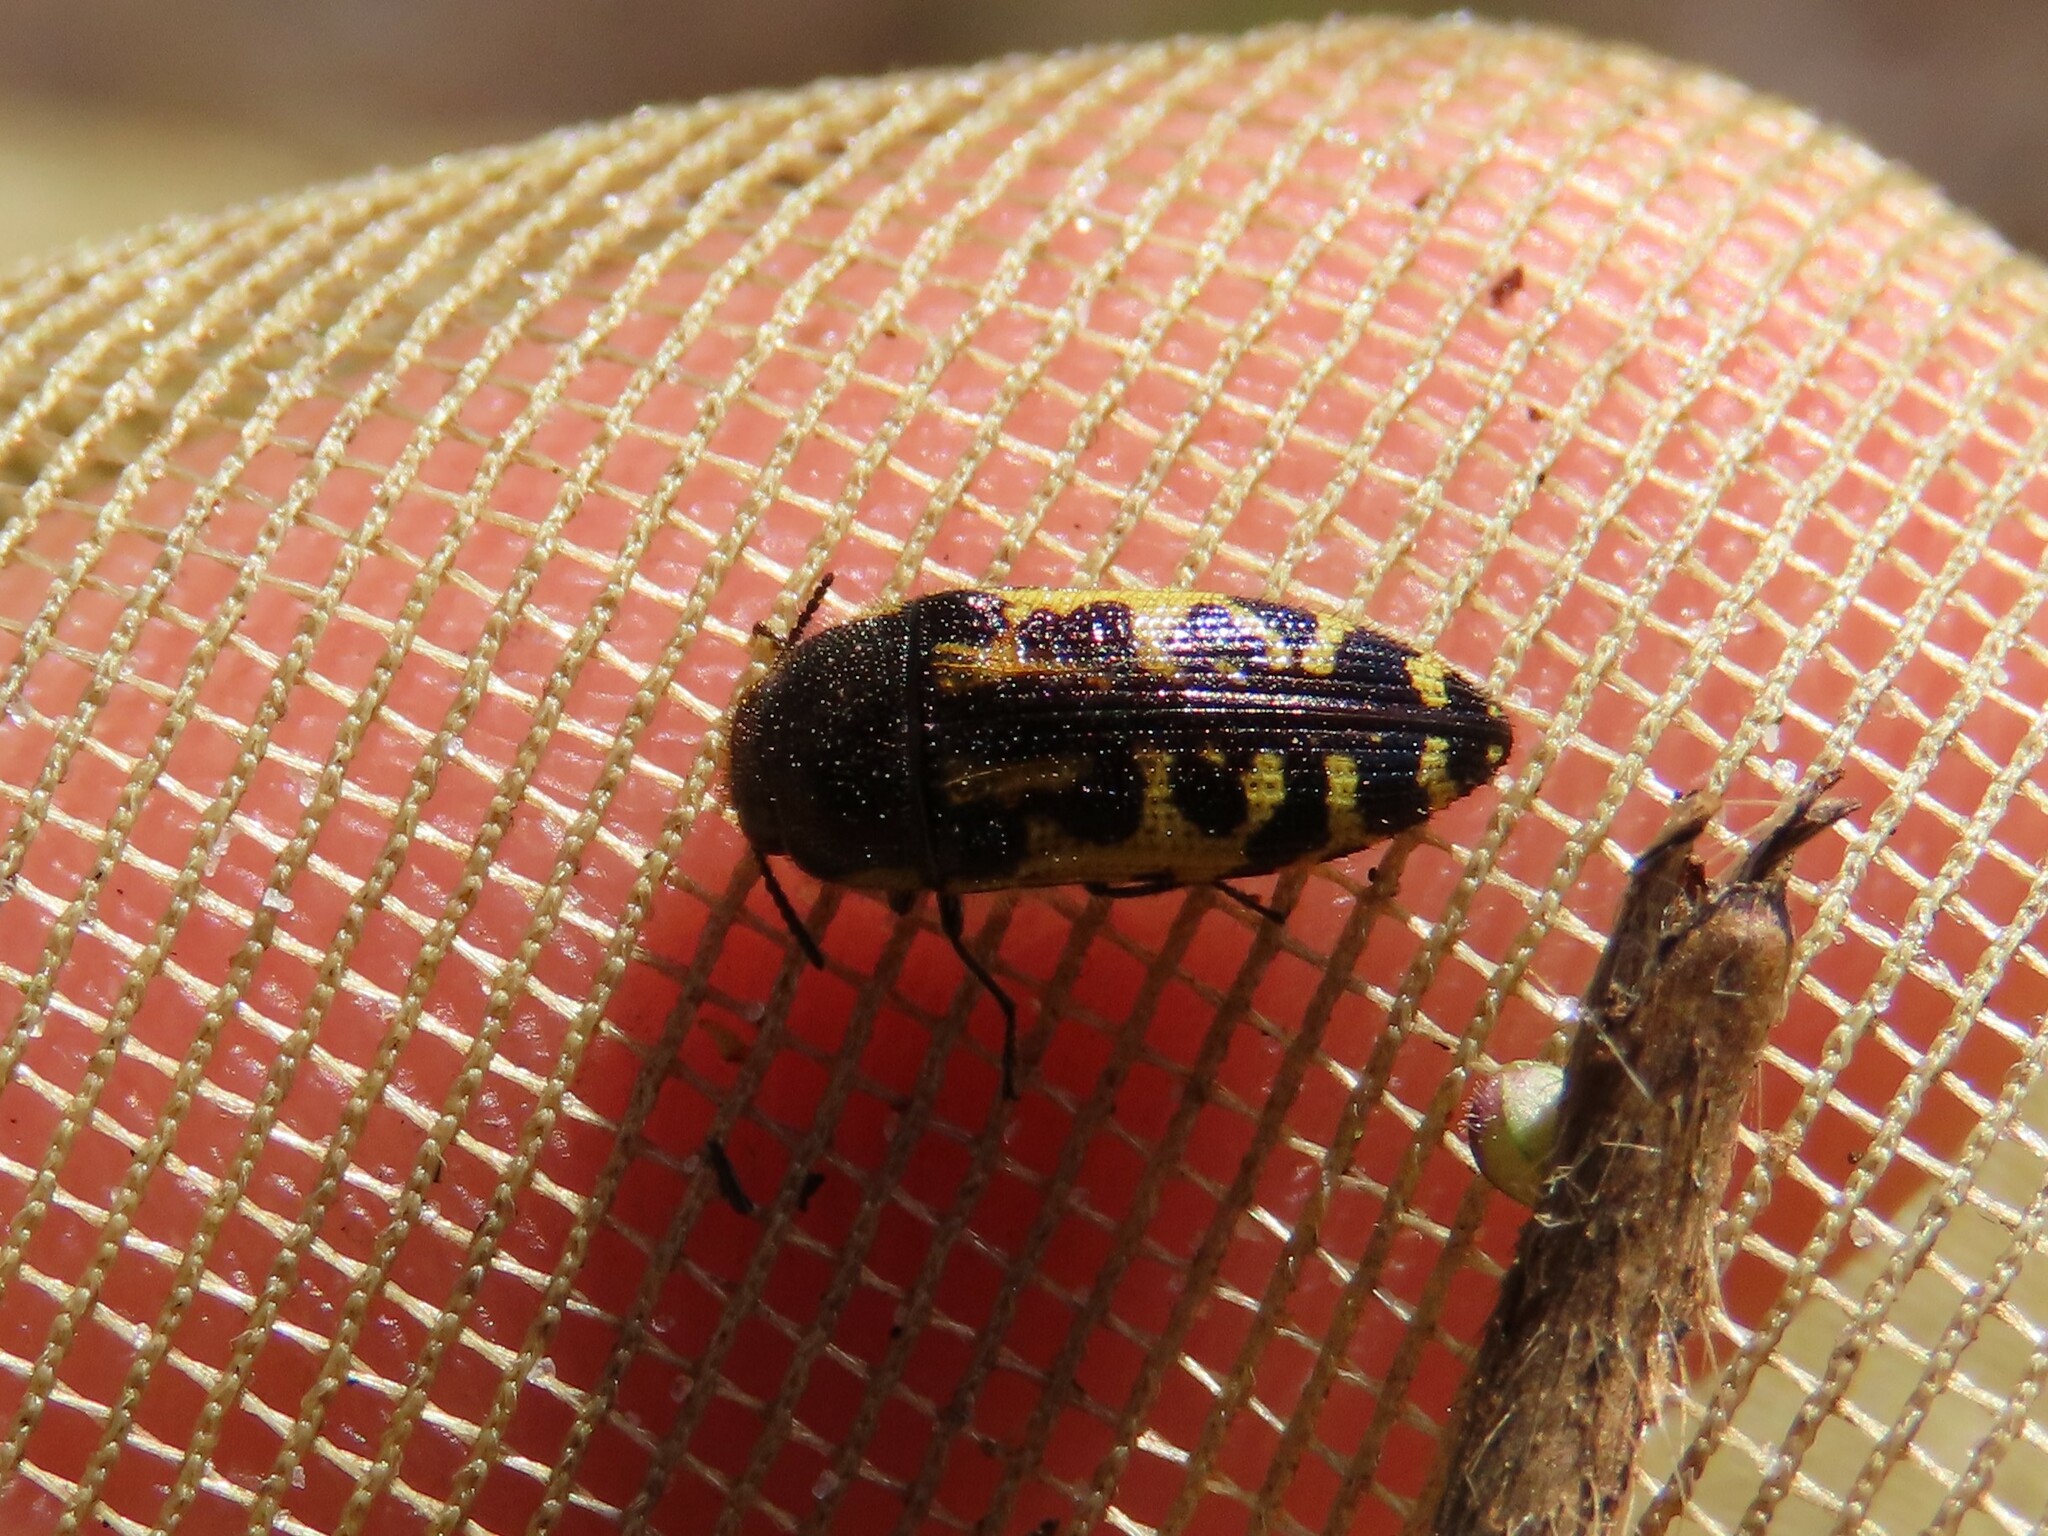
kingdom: Animalia
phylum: Arthropoda
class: Insecta
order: Coleoptera
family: Buprestidae
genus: Acmaeodera
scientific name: Acmaeodera pulchella
